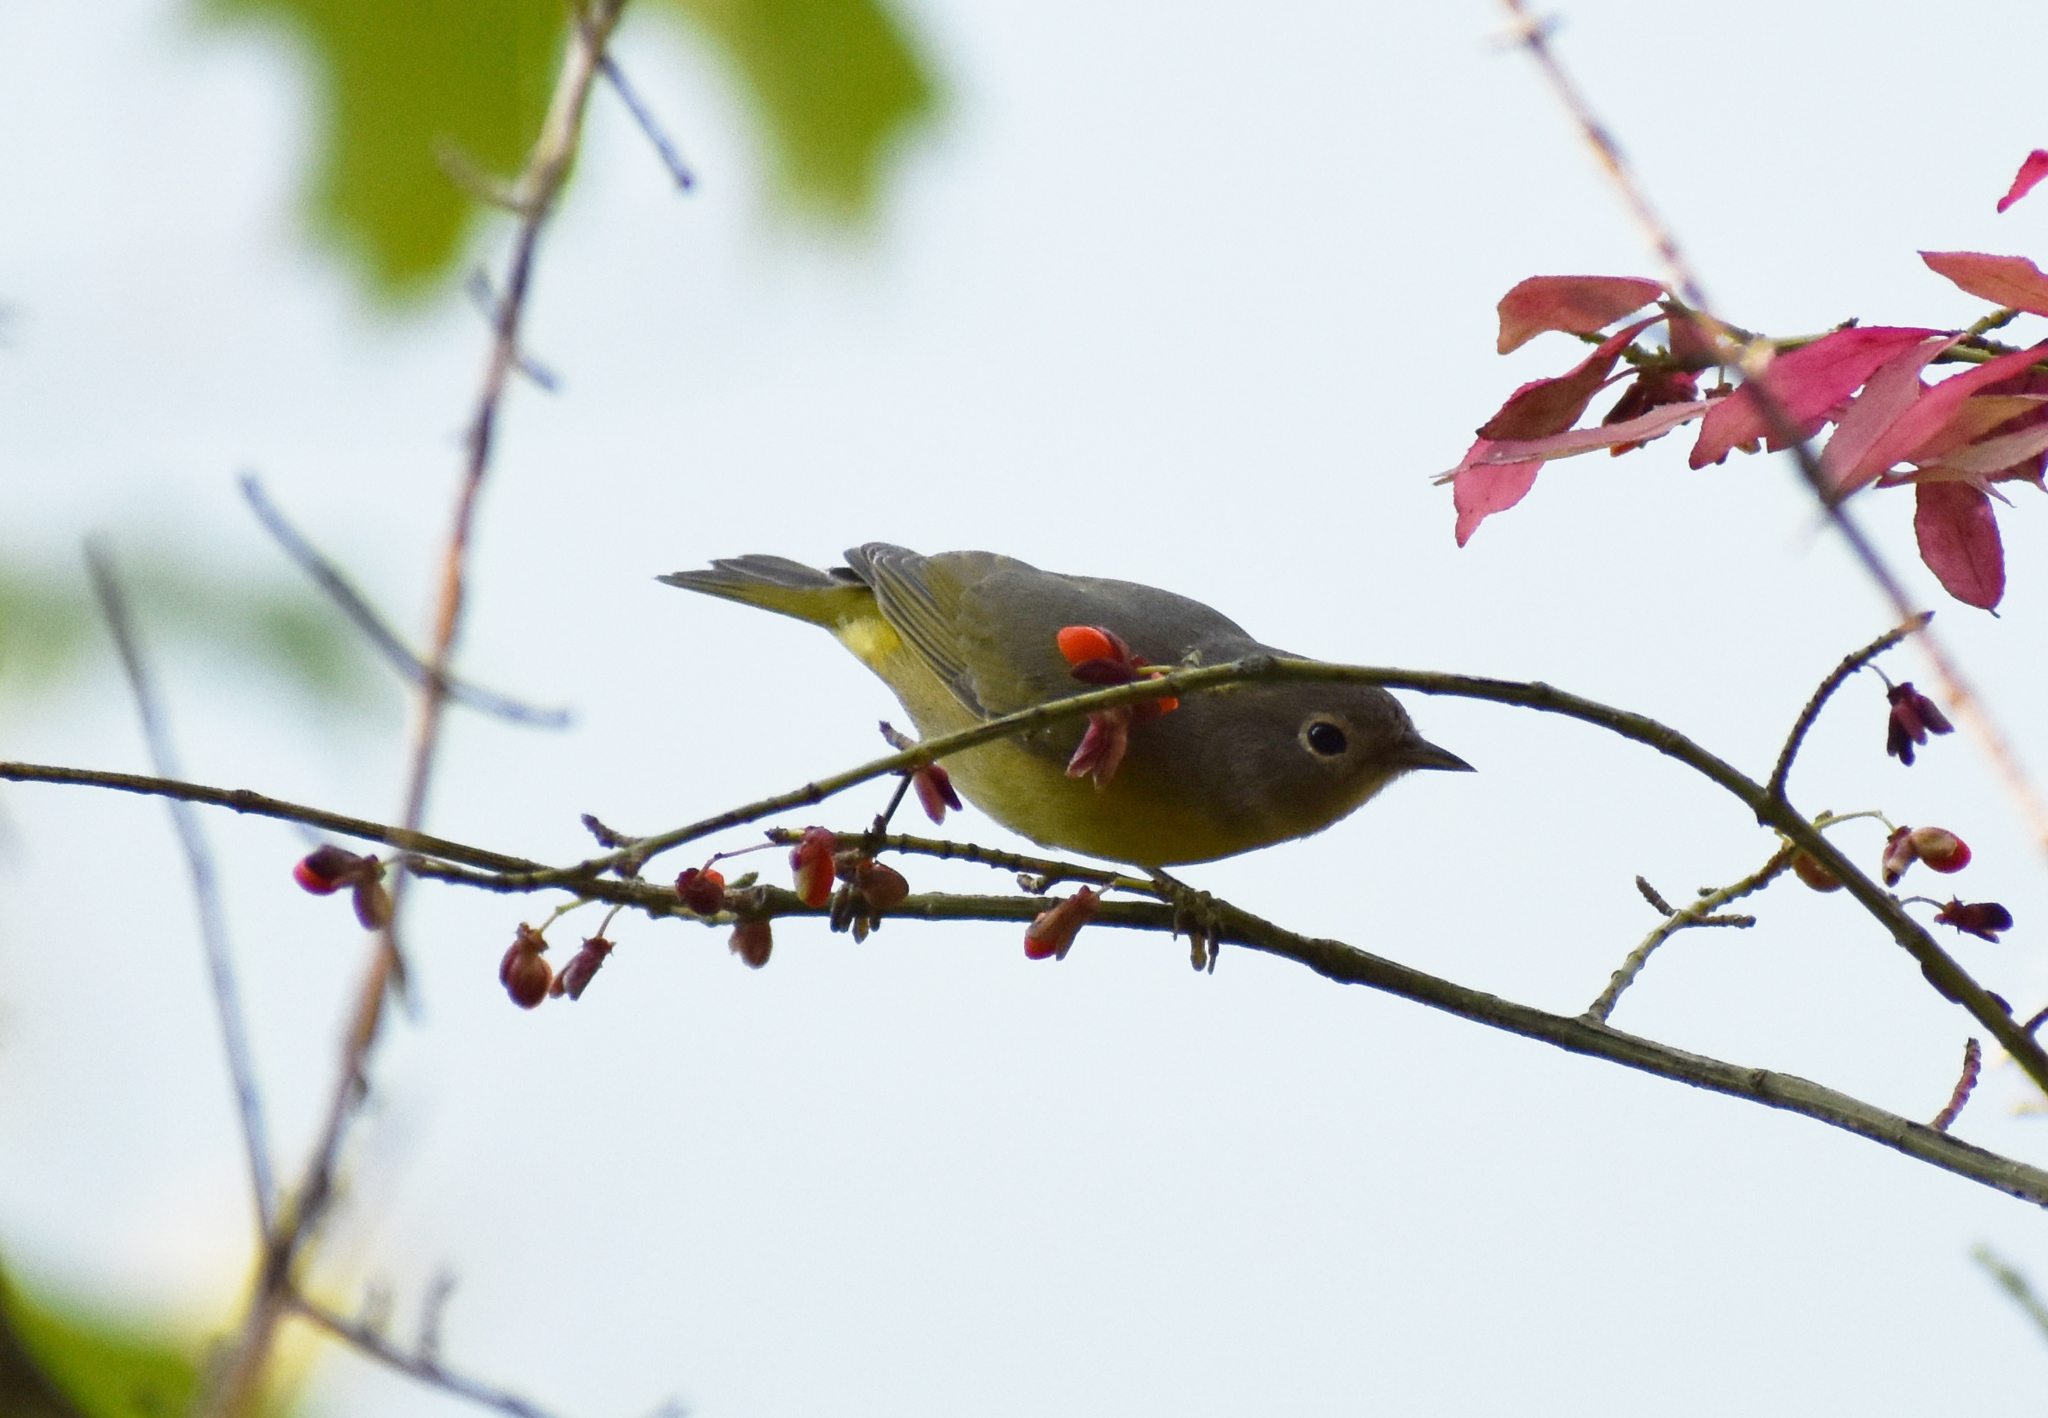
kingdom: Animalia
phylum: Chordata
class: Aves
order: Passeriformes
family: Parulidae
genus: Leiothlypis
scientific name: Leiothlypis ruficapilla
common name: Nashville warbler
